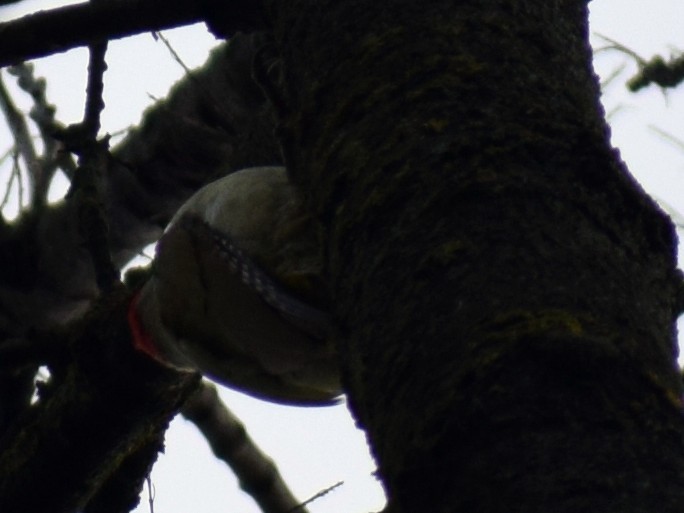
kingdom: Animalia
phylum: Chordata
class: Aves
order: Piciformes
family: Picidae
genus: Picus
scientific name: Picus viridis
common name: European green woodpecker
